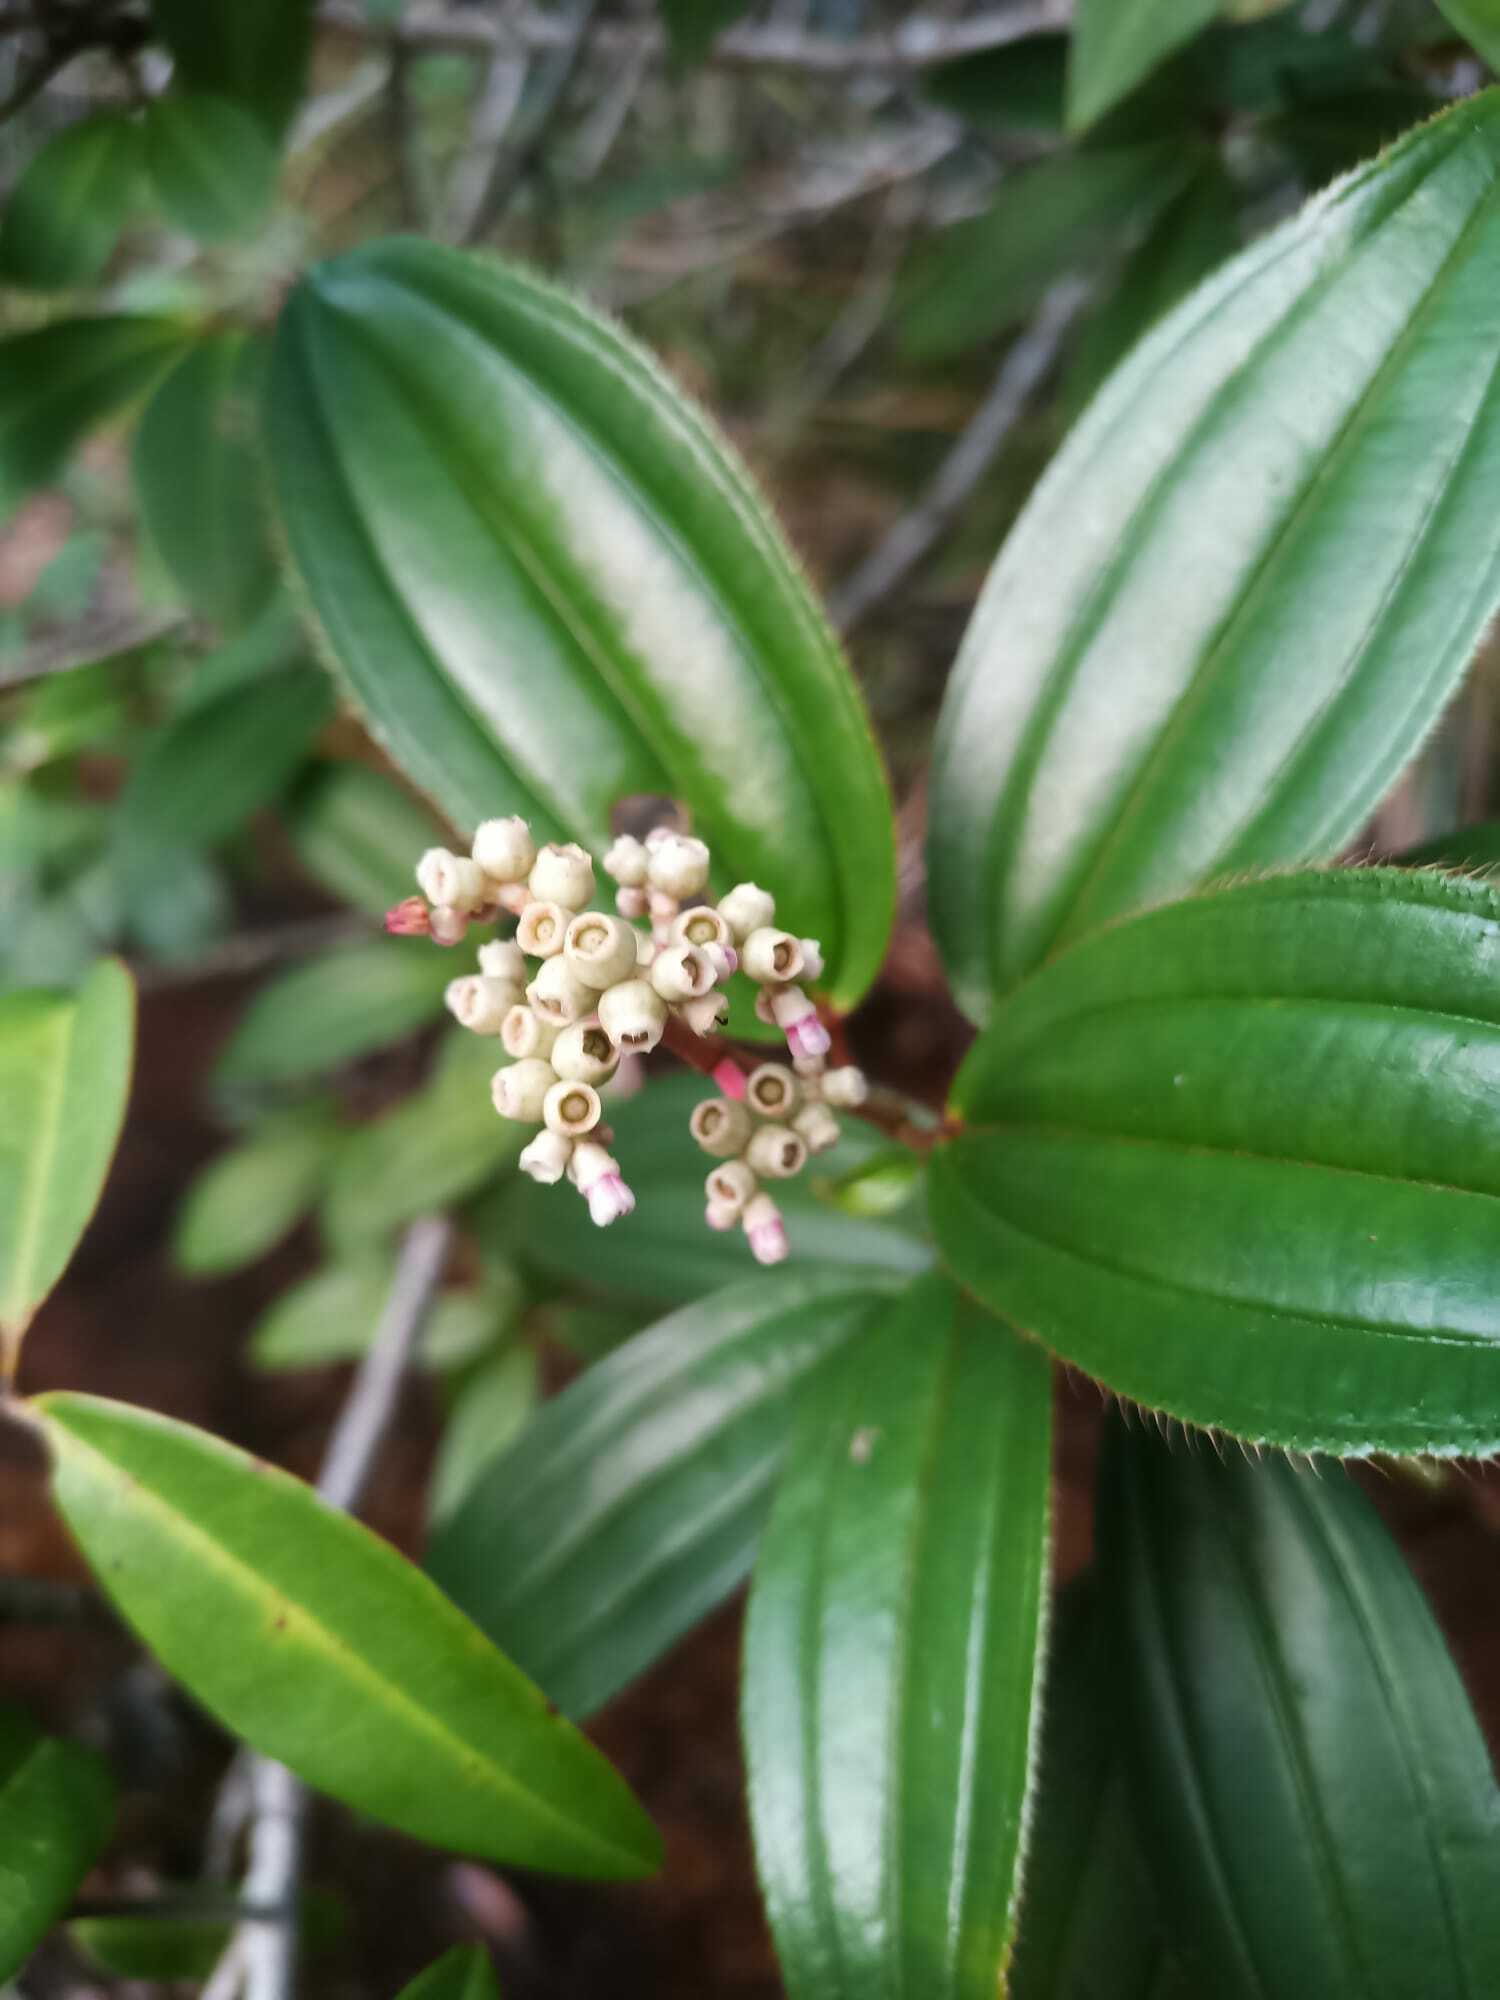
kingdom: Plantae
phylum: Tracheophyta
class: Magnoliopsida
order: Myrtales
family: Melastomataceae
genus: Miconia
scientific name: Miconia ciliata
